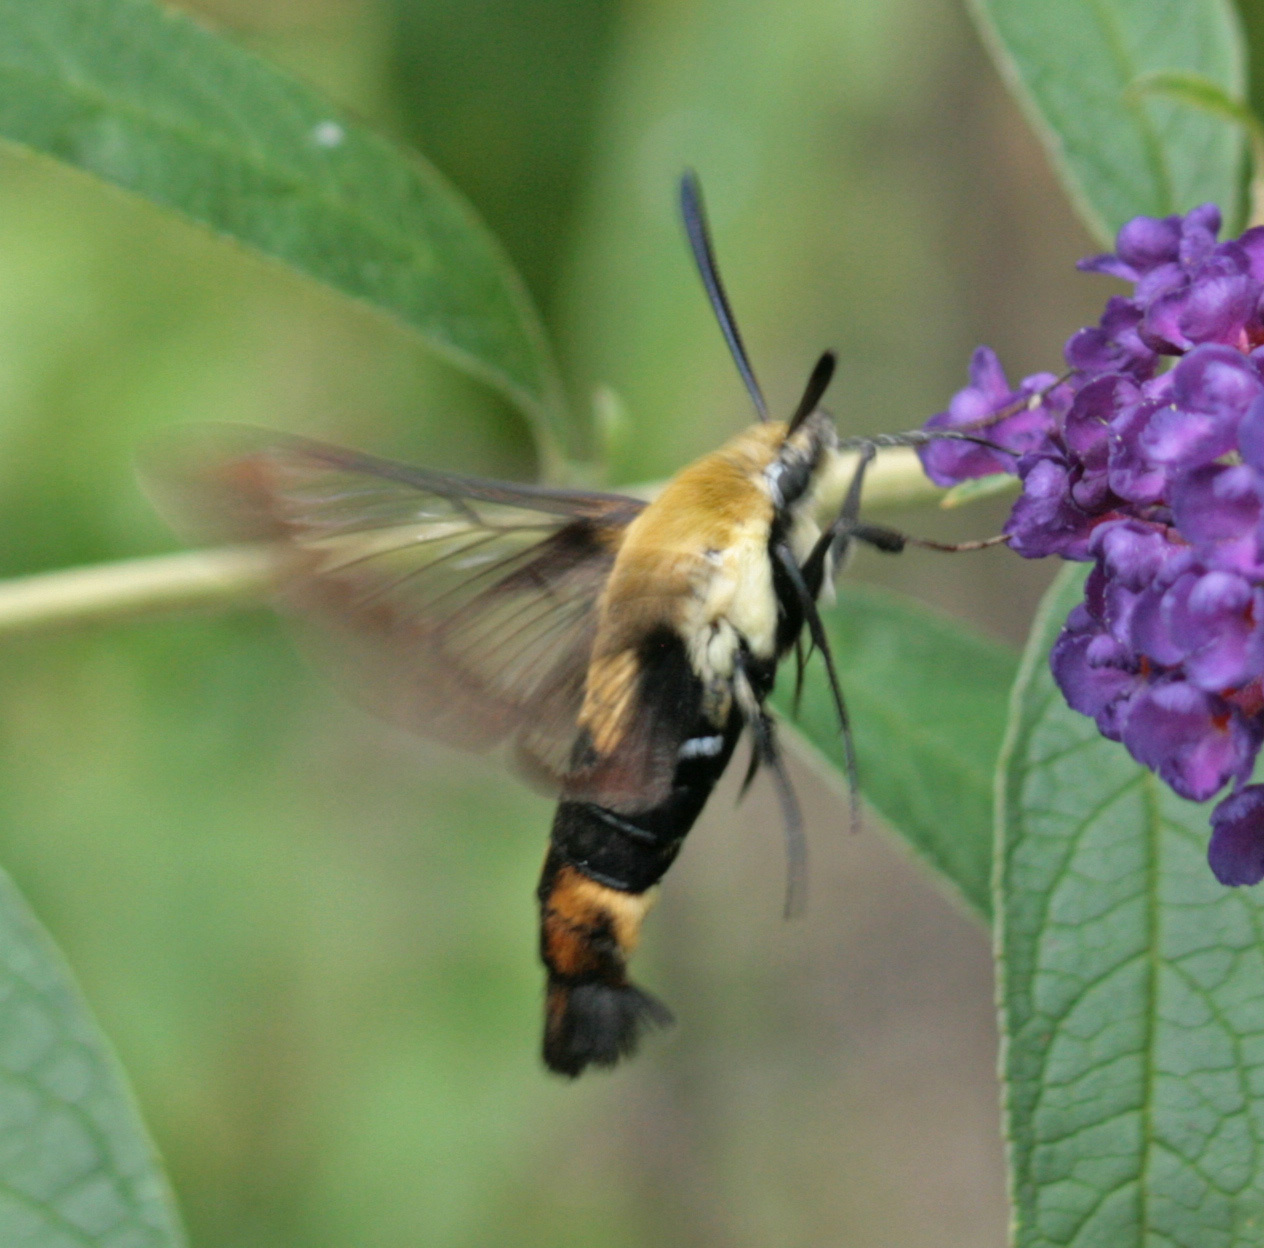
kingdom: Animalia
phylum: Arthropoda
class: Insecta
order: Lepidoptera
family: Sphingidae
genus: Hemaris
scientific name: Hemaris diffinis
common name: Bumblebee moth
